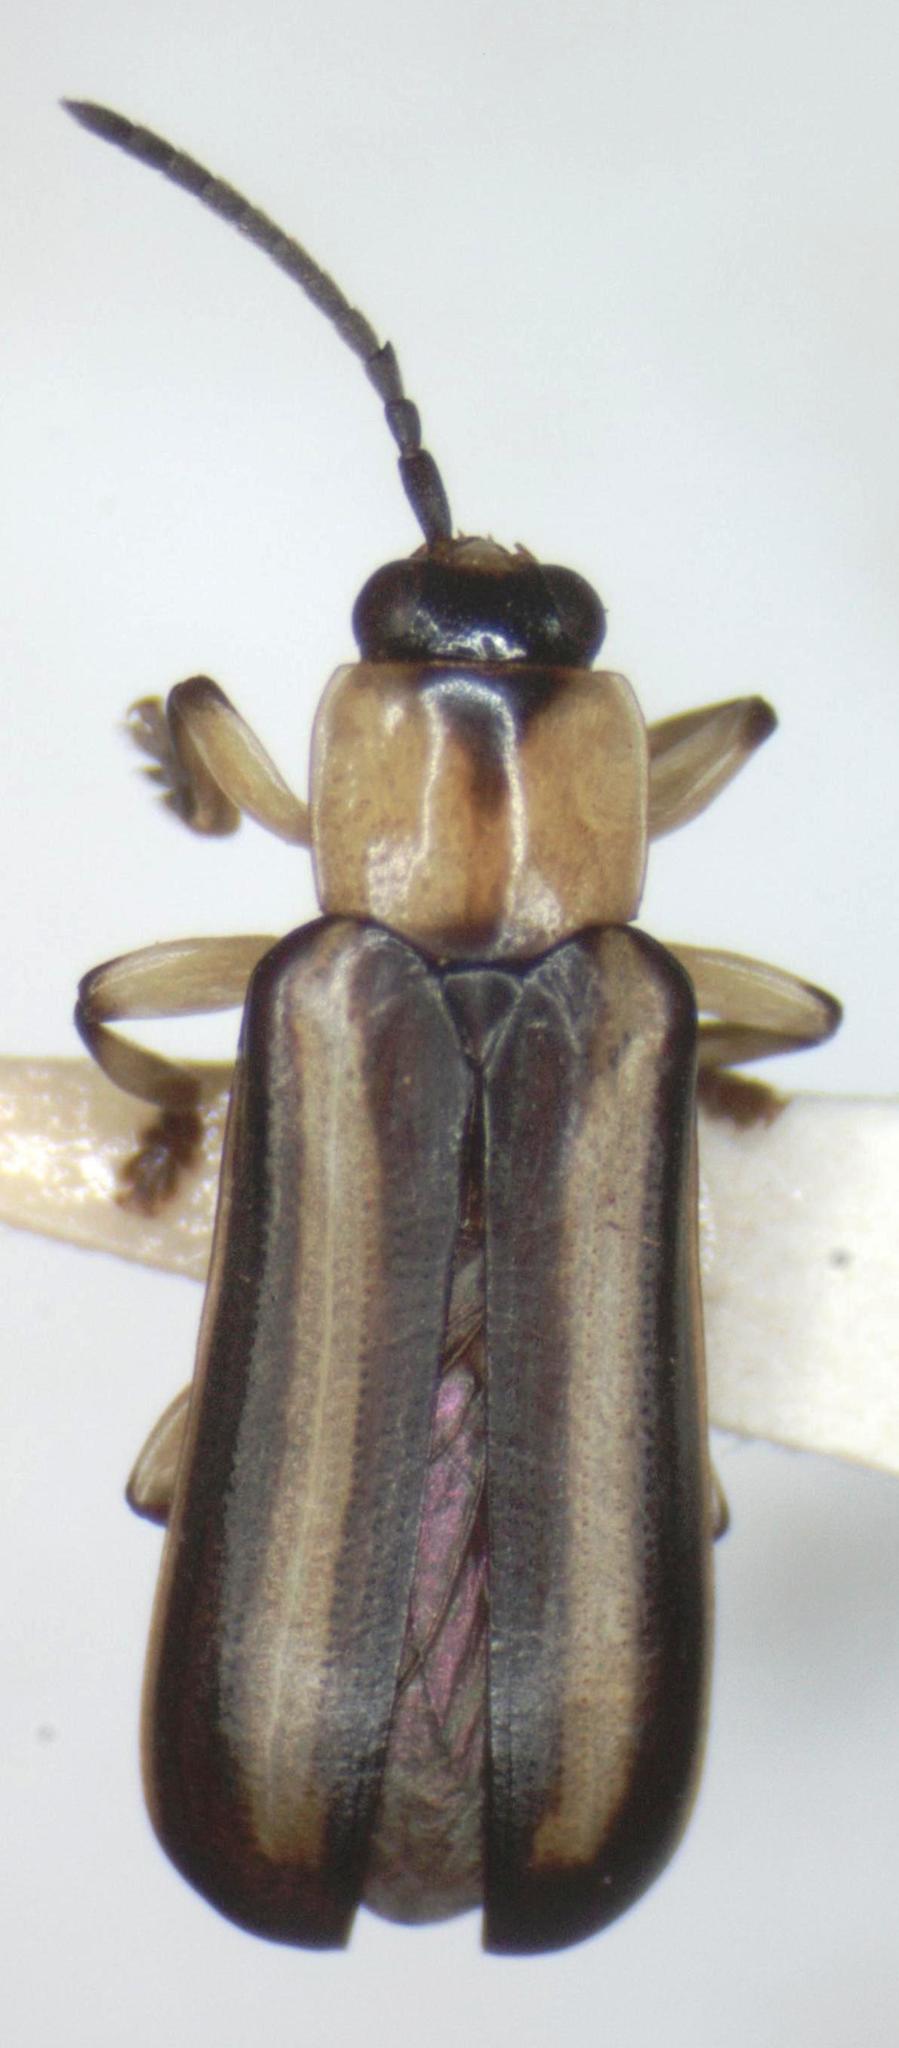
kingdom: Animalia
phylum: Arthropoda
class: Insecta
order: Coleoptera
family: Chrysomelidae
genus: Cephaloleia
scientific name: Cephaloleia belti
